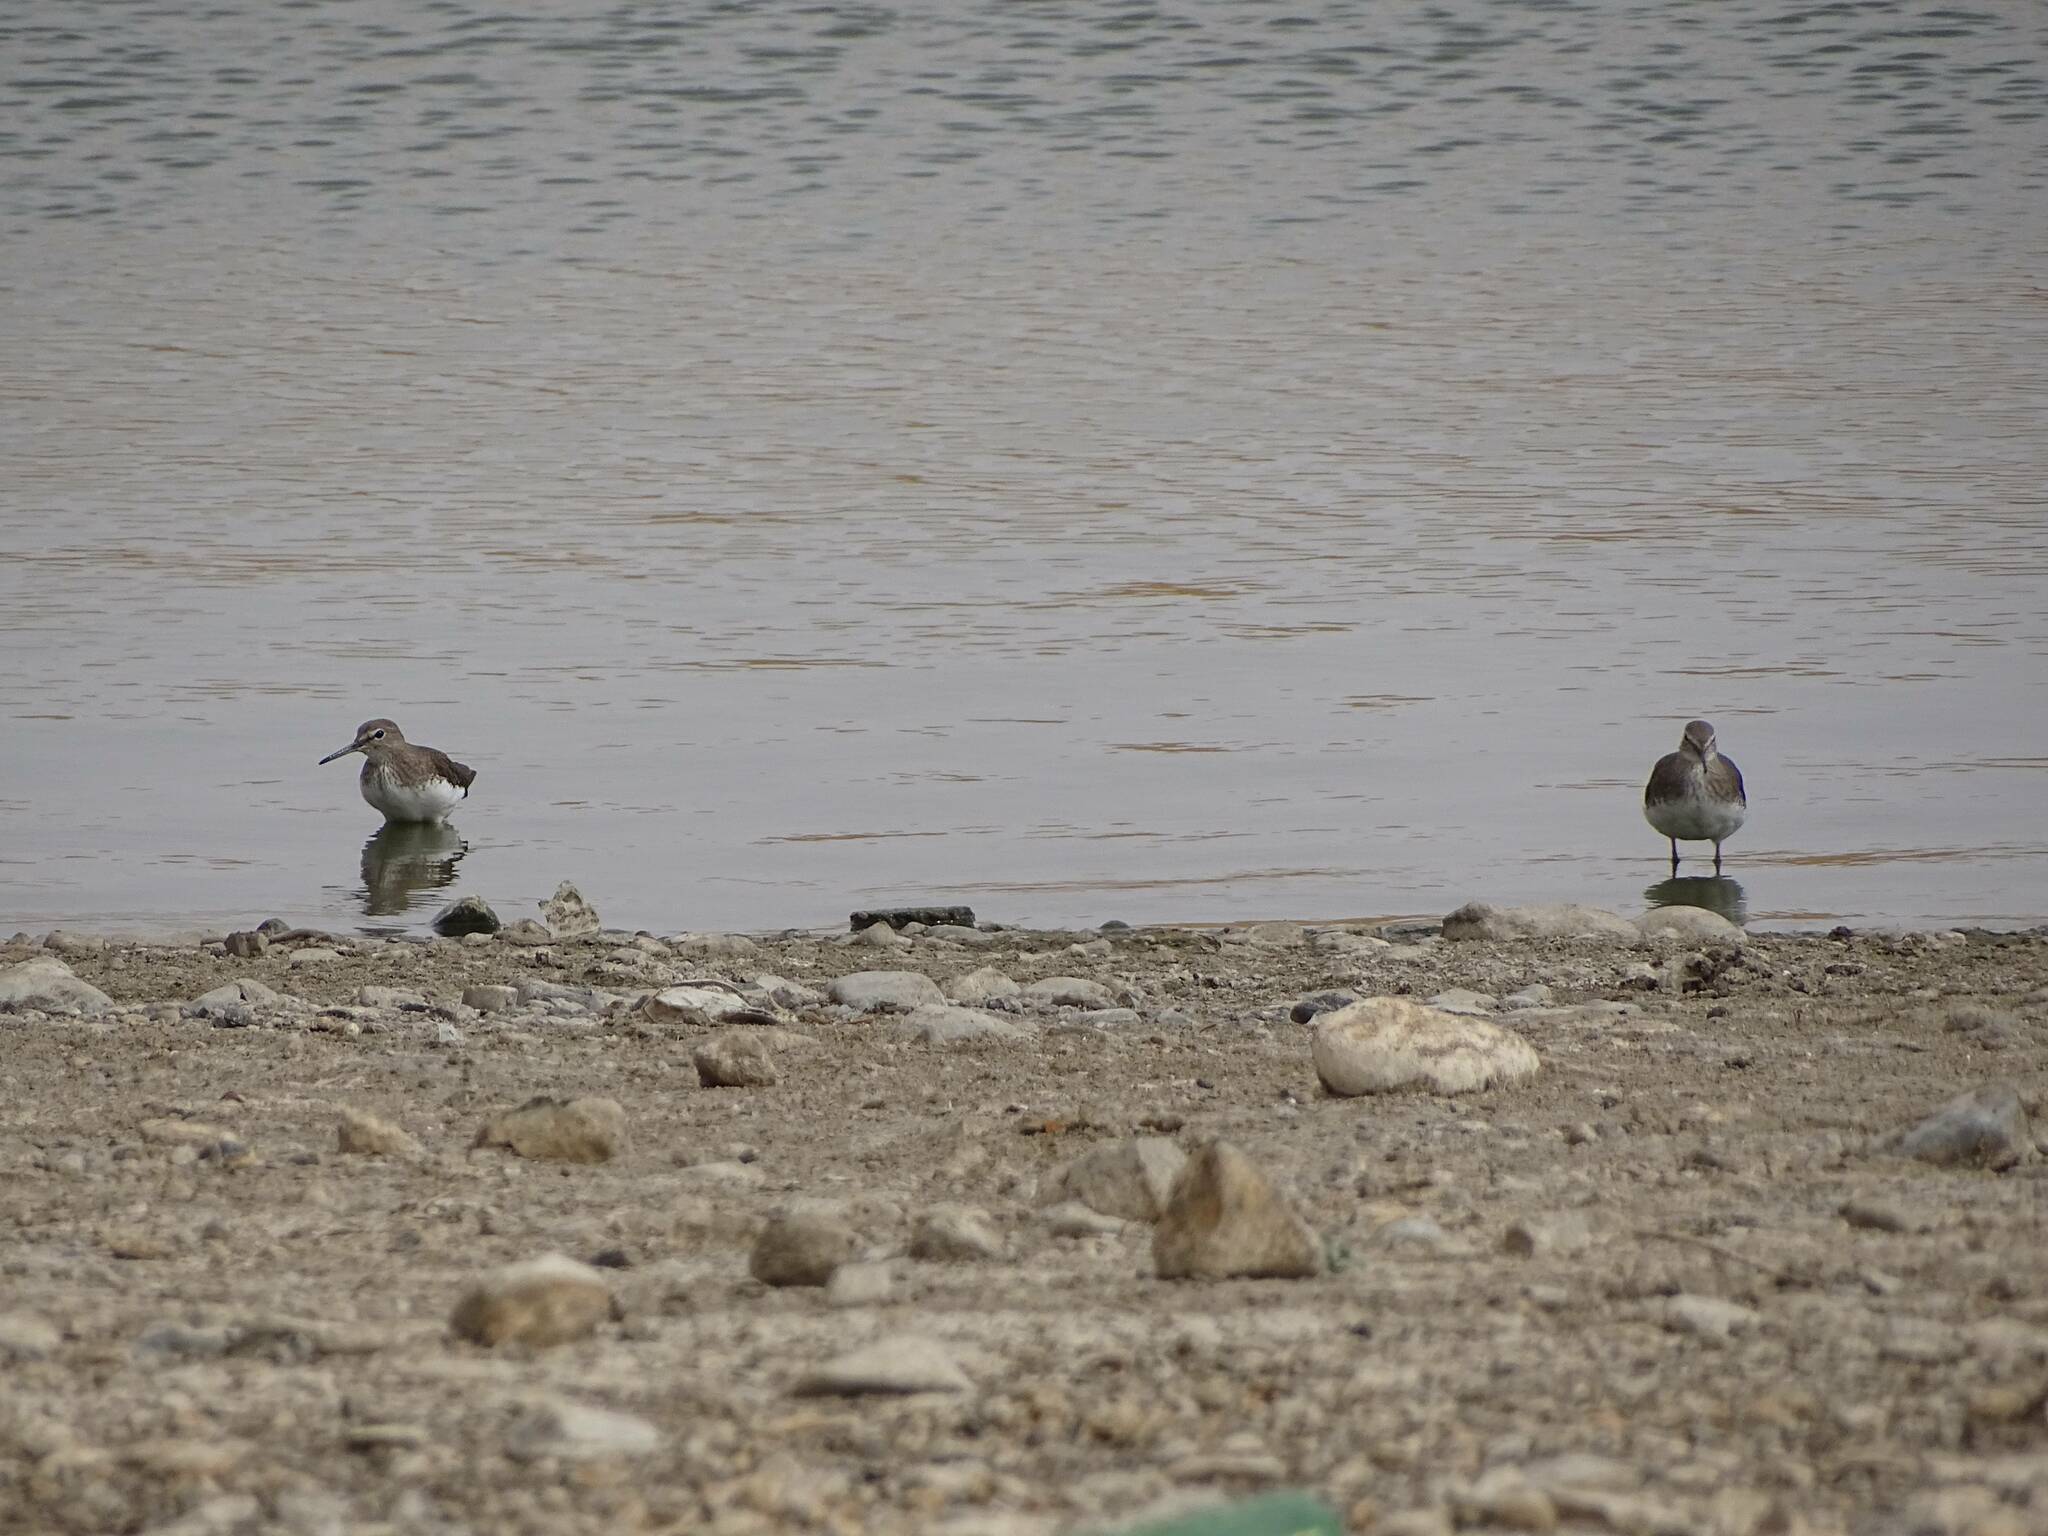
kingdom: Animalia
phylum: Chordata
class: Aves
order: Charadriiformes
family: Scolopacidae
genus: Tringa
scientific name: Tringa ochropus
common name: Green sandpiper
